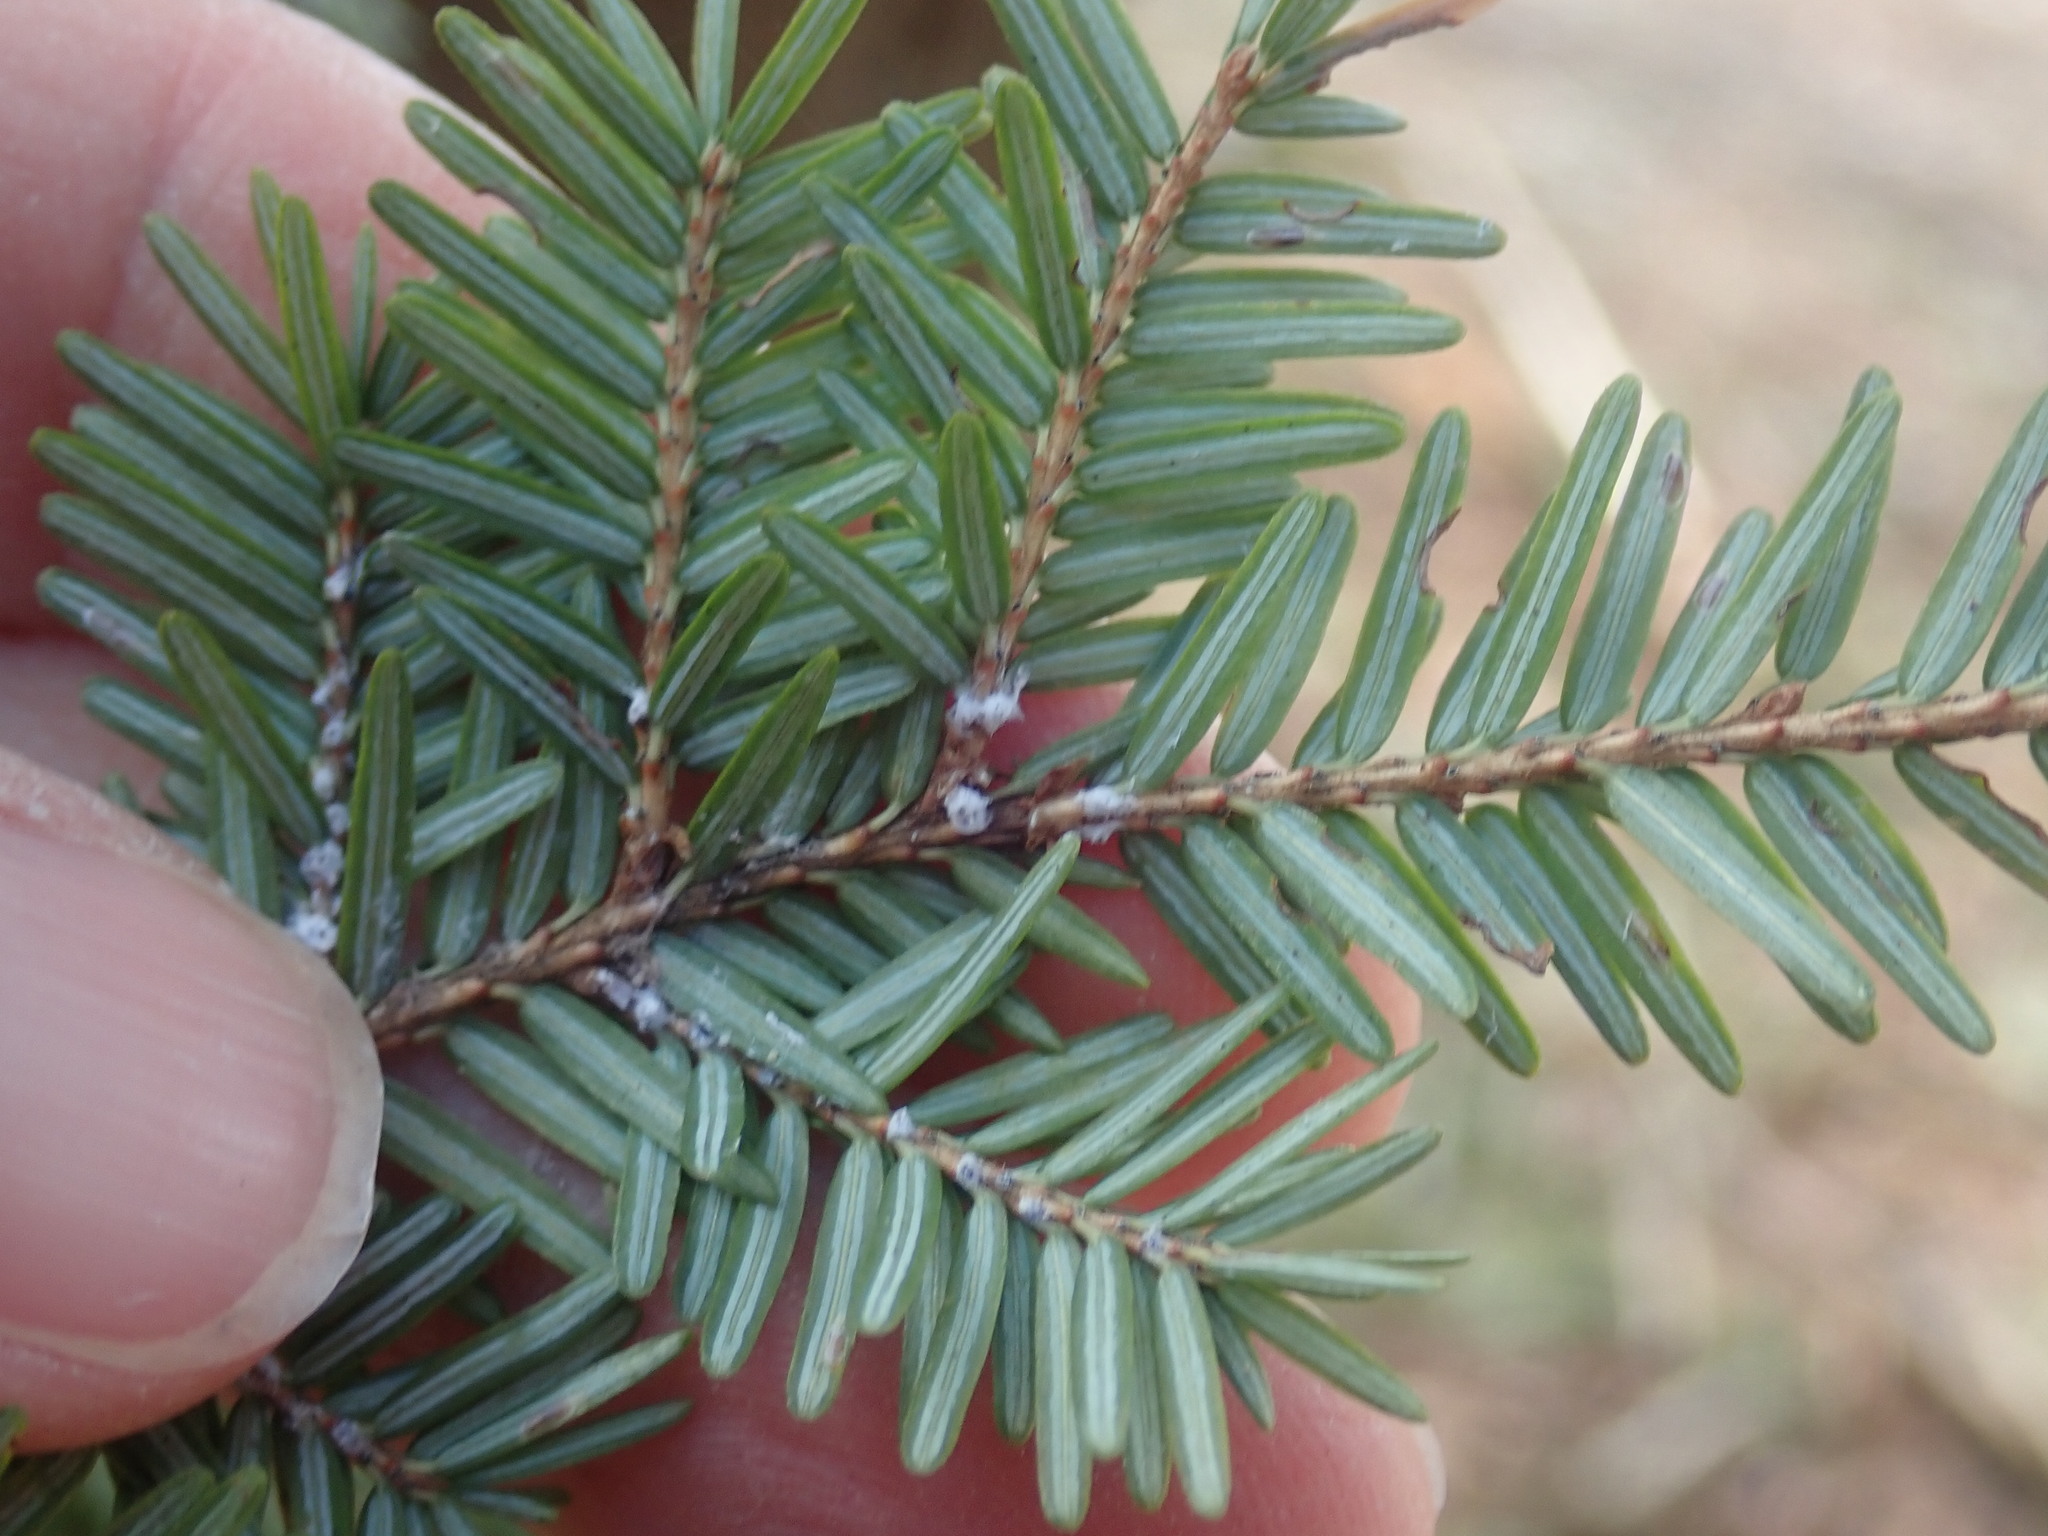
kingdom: Animalia
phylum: Arthropoda
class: Insecta
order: Hemiptera
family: Adelgidae
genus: Adelges
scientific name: Adelges tsugae
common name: Hemlock woolly adelgid
